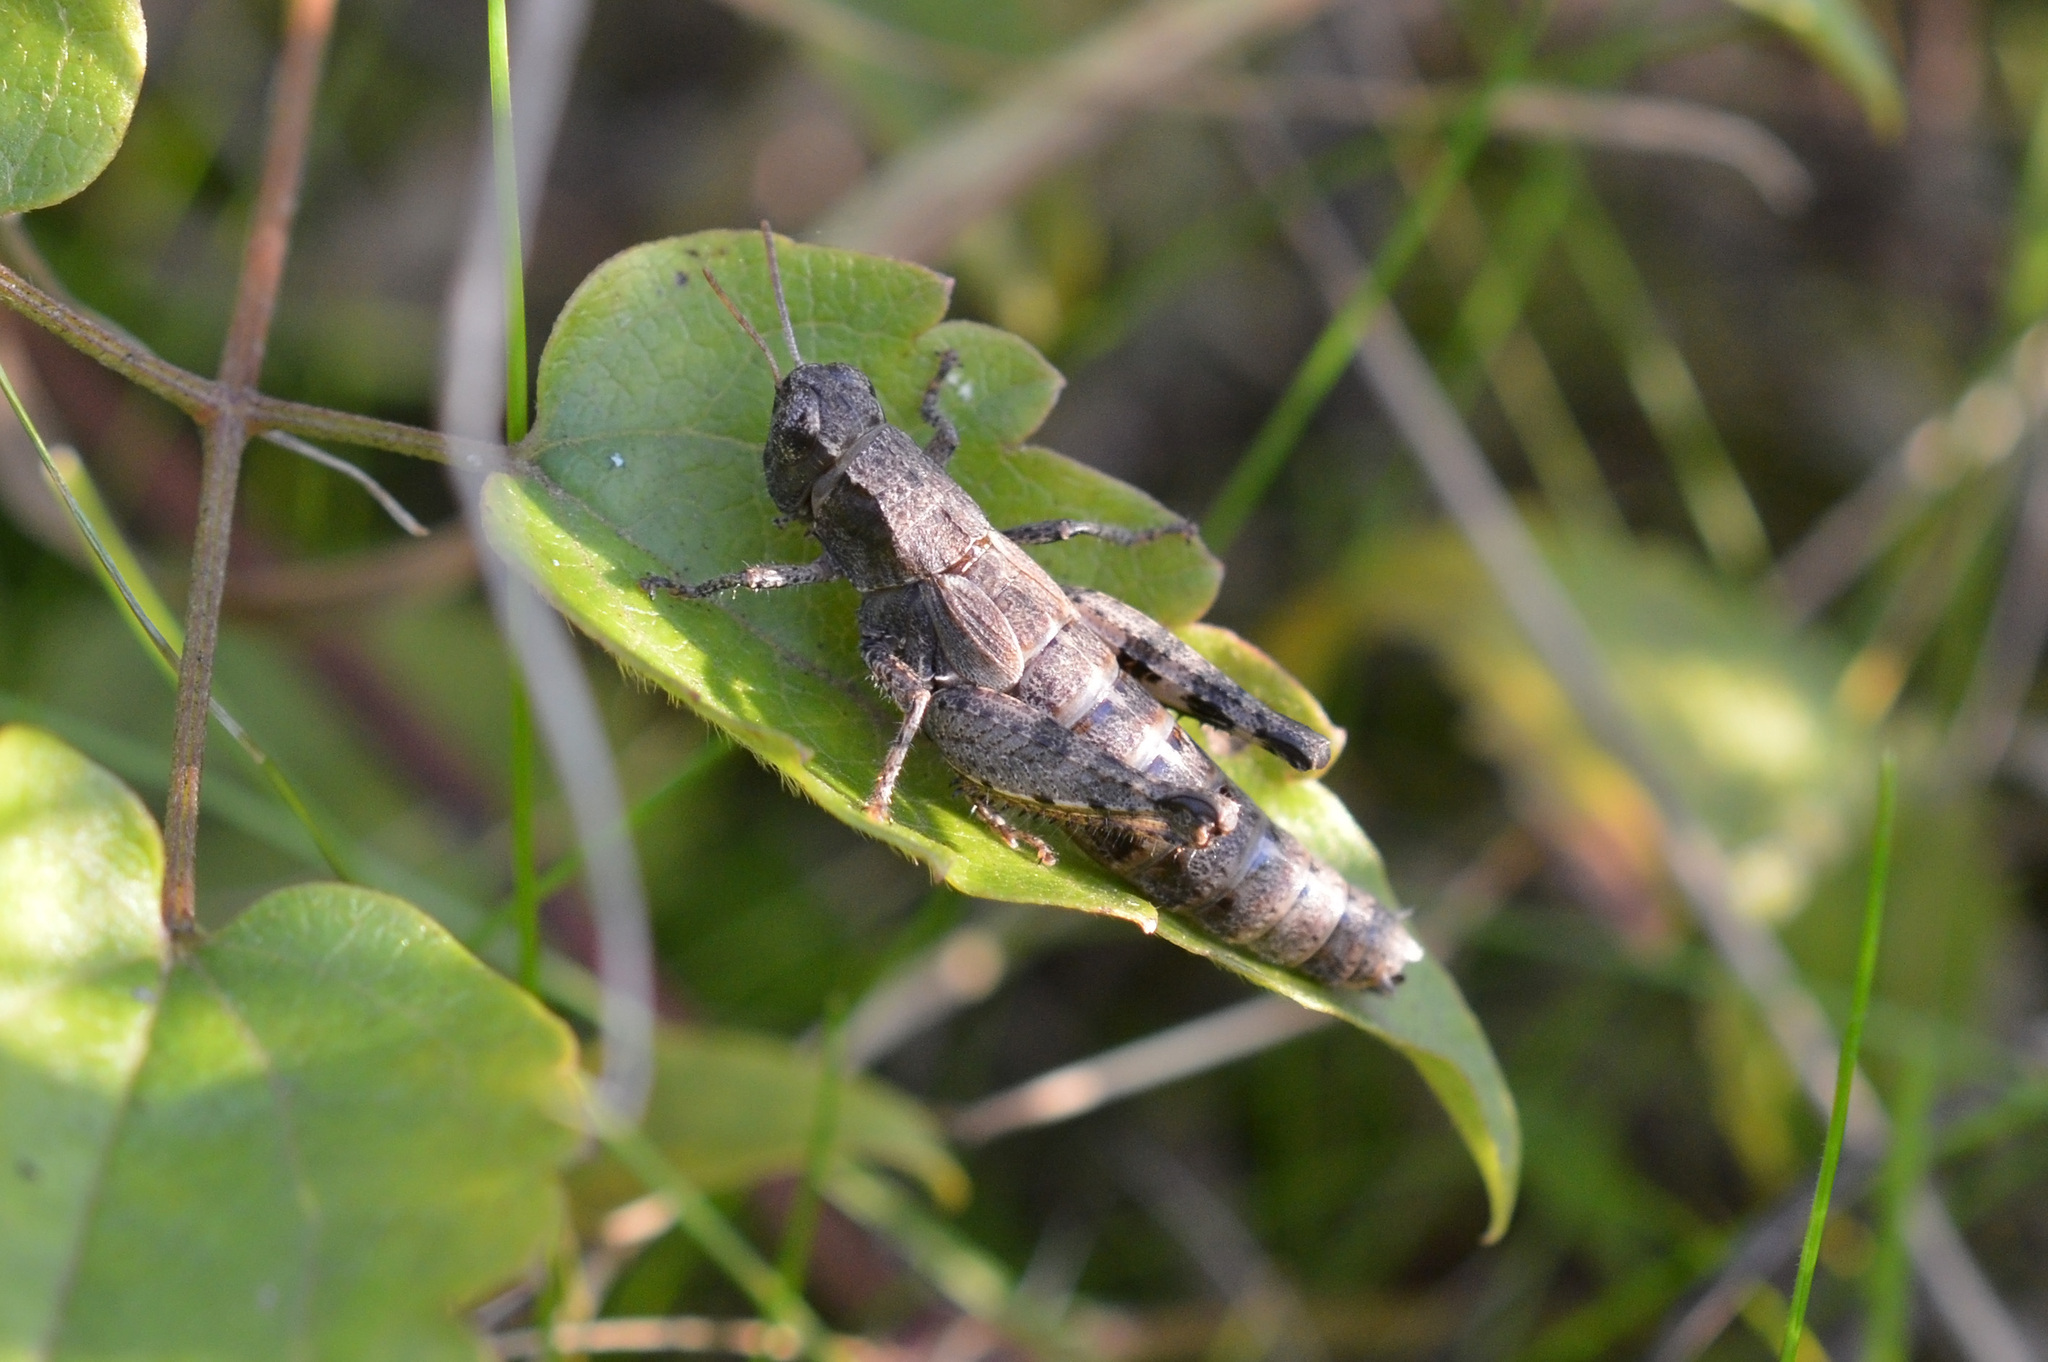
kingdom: Animalia
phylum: Arthropoda
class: Insecta
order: Orthoptera
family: Acrididae
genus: Pezotettix
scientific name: Pezotettix giornae
